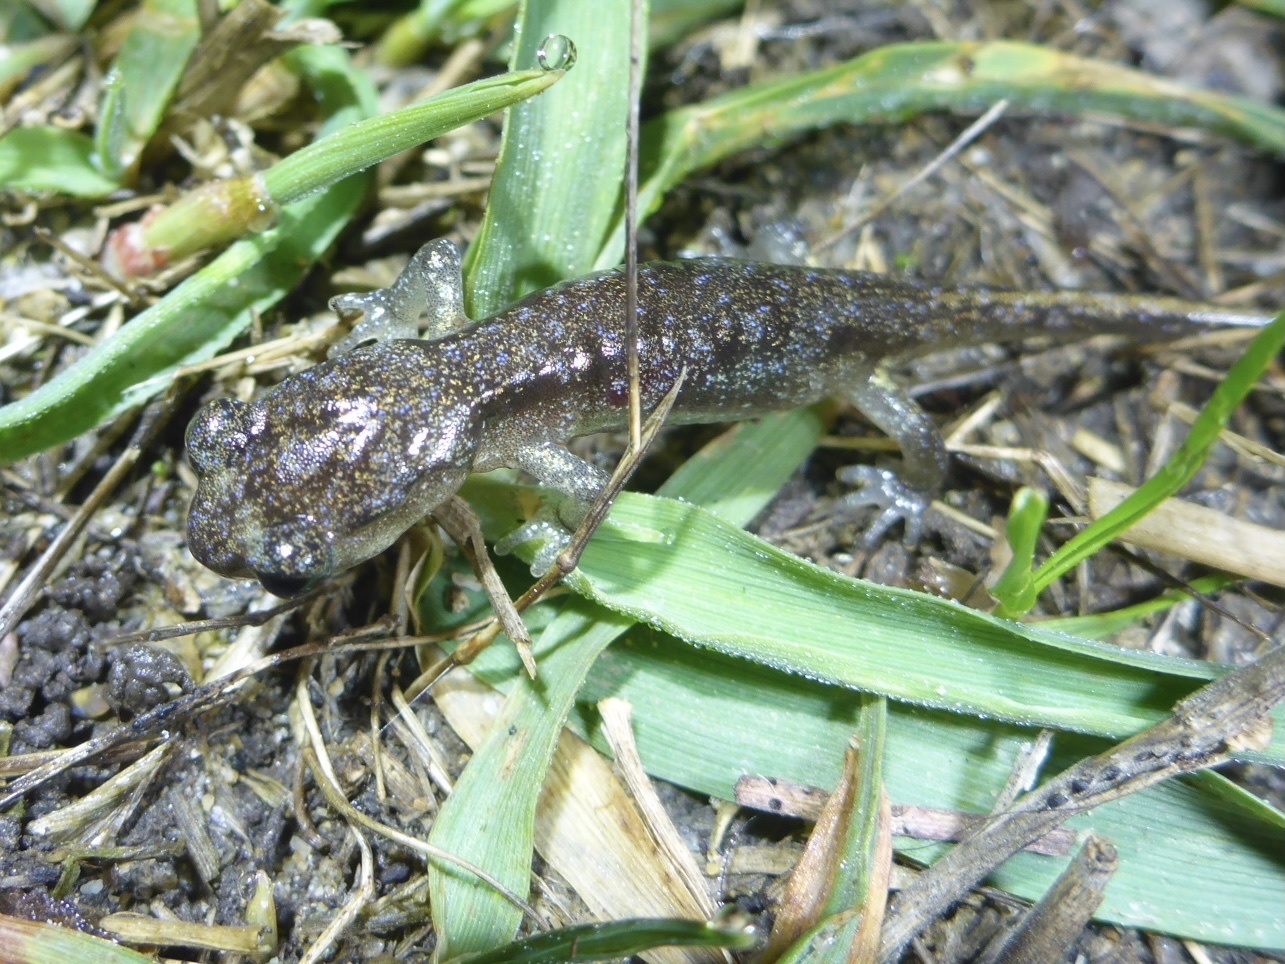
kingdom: Animalia
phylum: Chordata
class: Amphibia
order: Caudata
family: Plethodontidae
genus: Aneides
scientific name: Aneides lugubris
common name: Arboreal salamander
